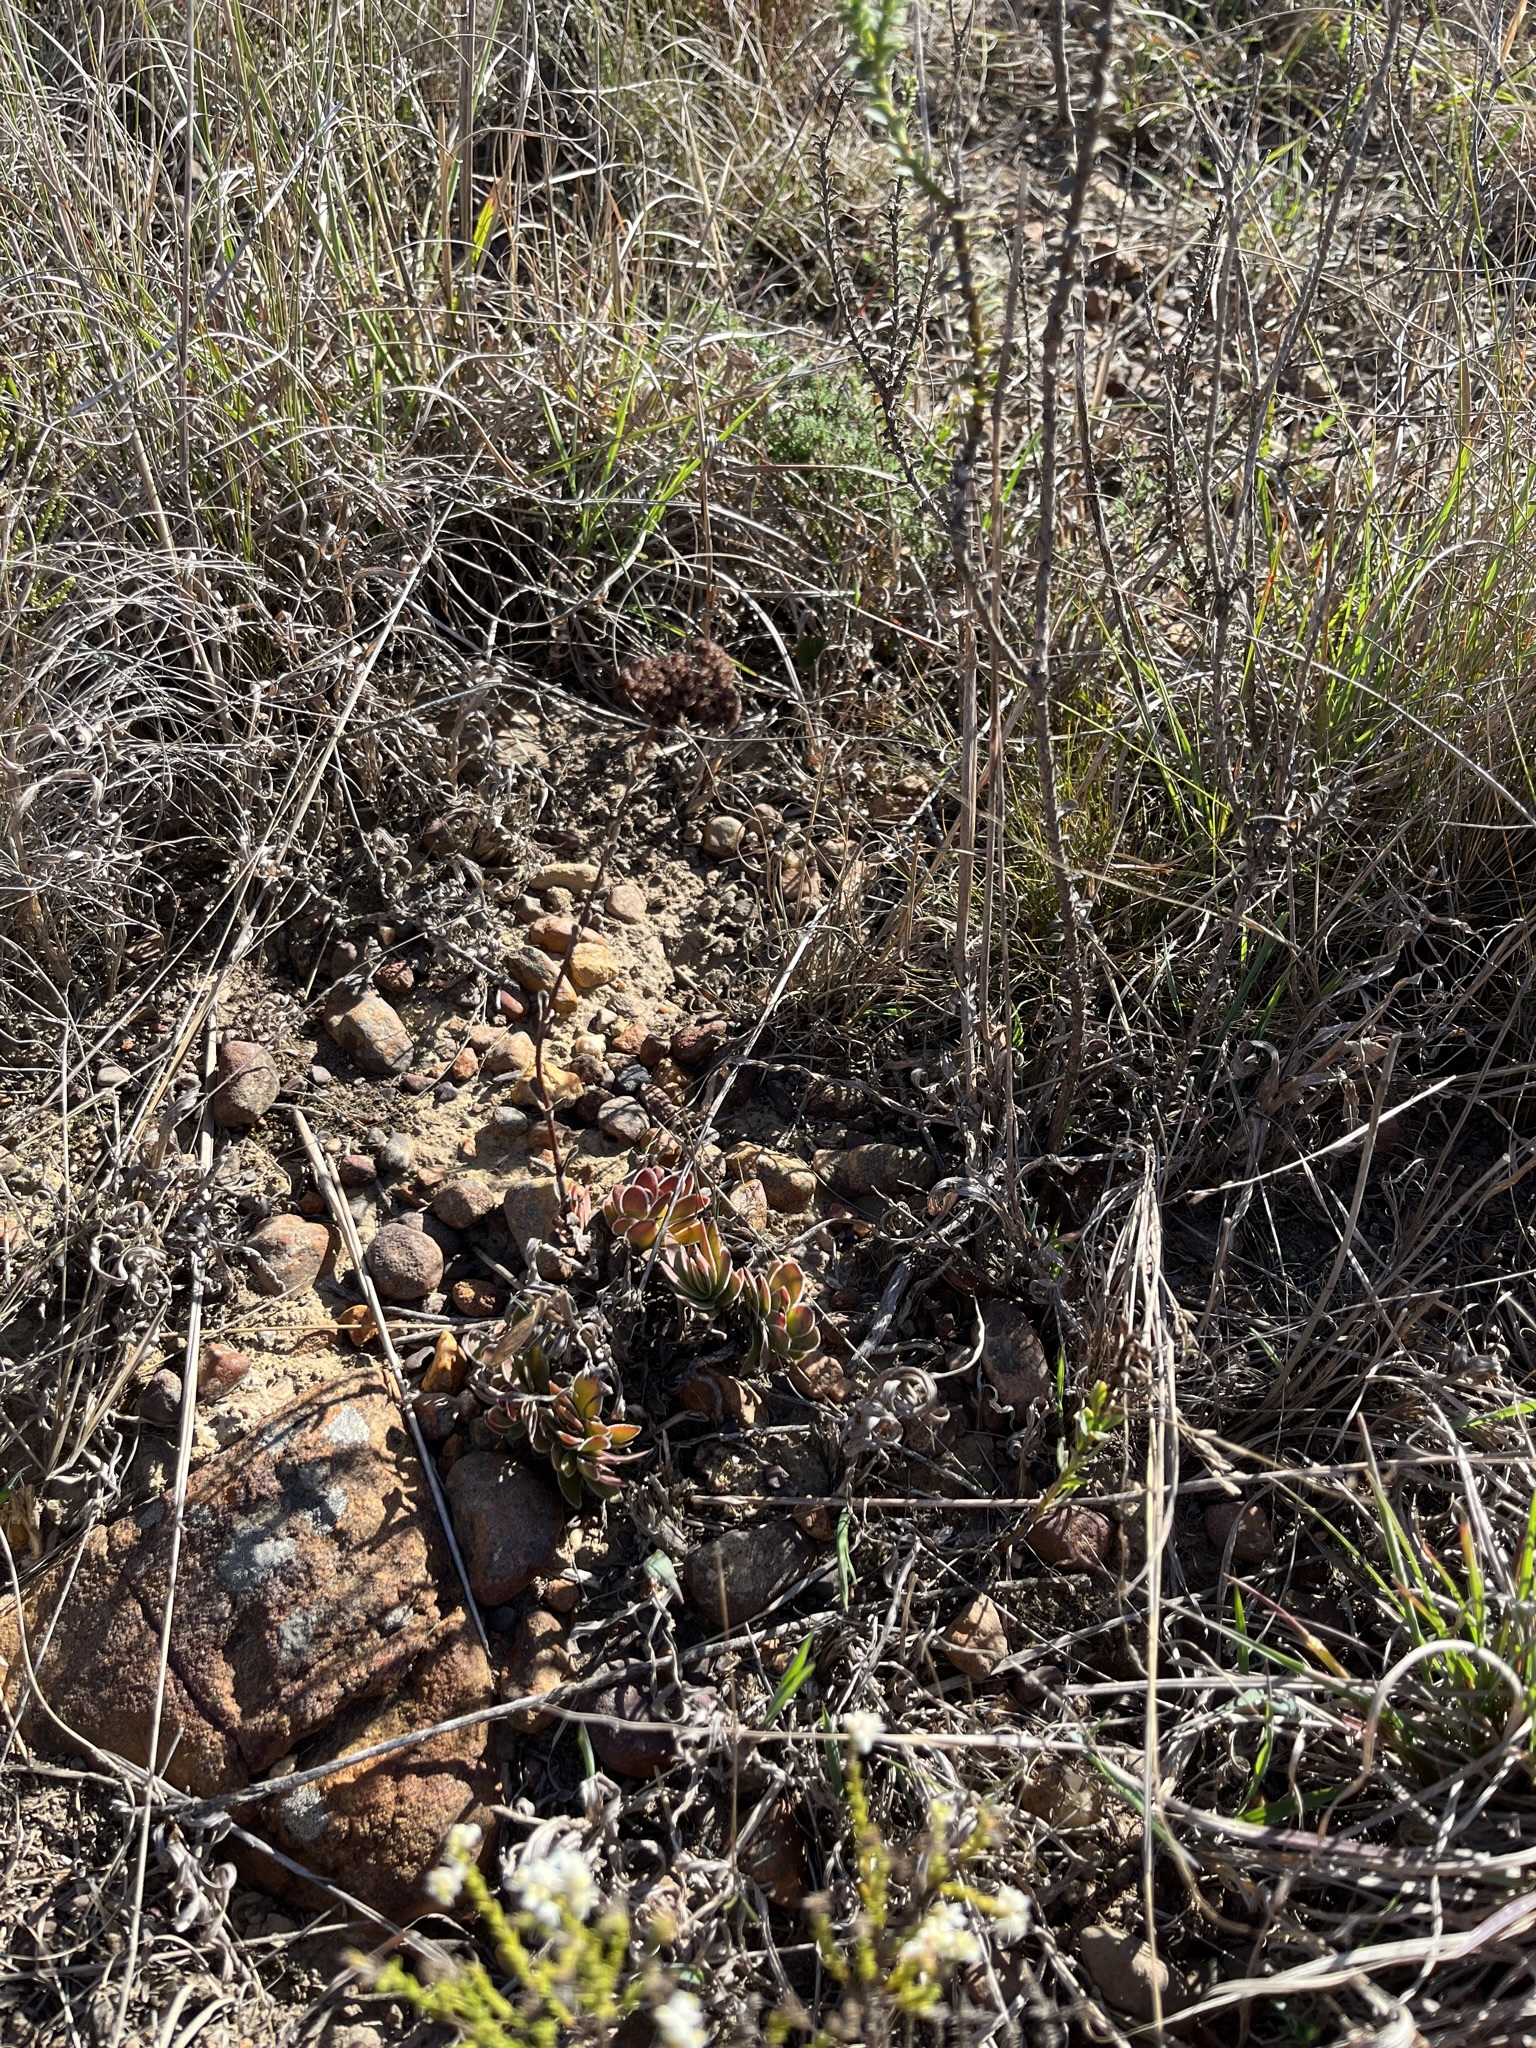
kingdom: Plantae
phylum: Tracheophyta
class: Magnoliopsida
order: Saxifragales
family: Crassulaceae
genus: Crassula
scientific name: Crassula ciliata
